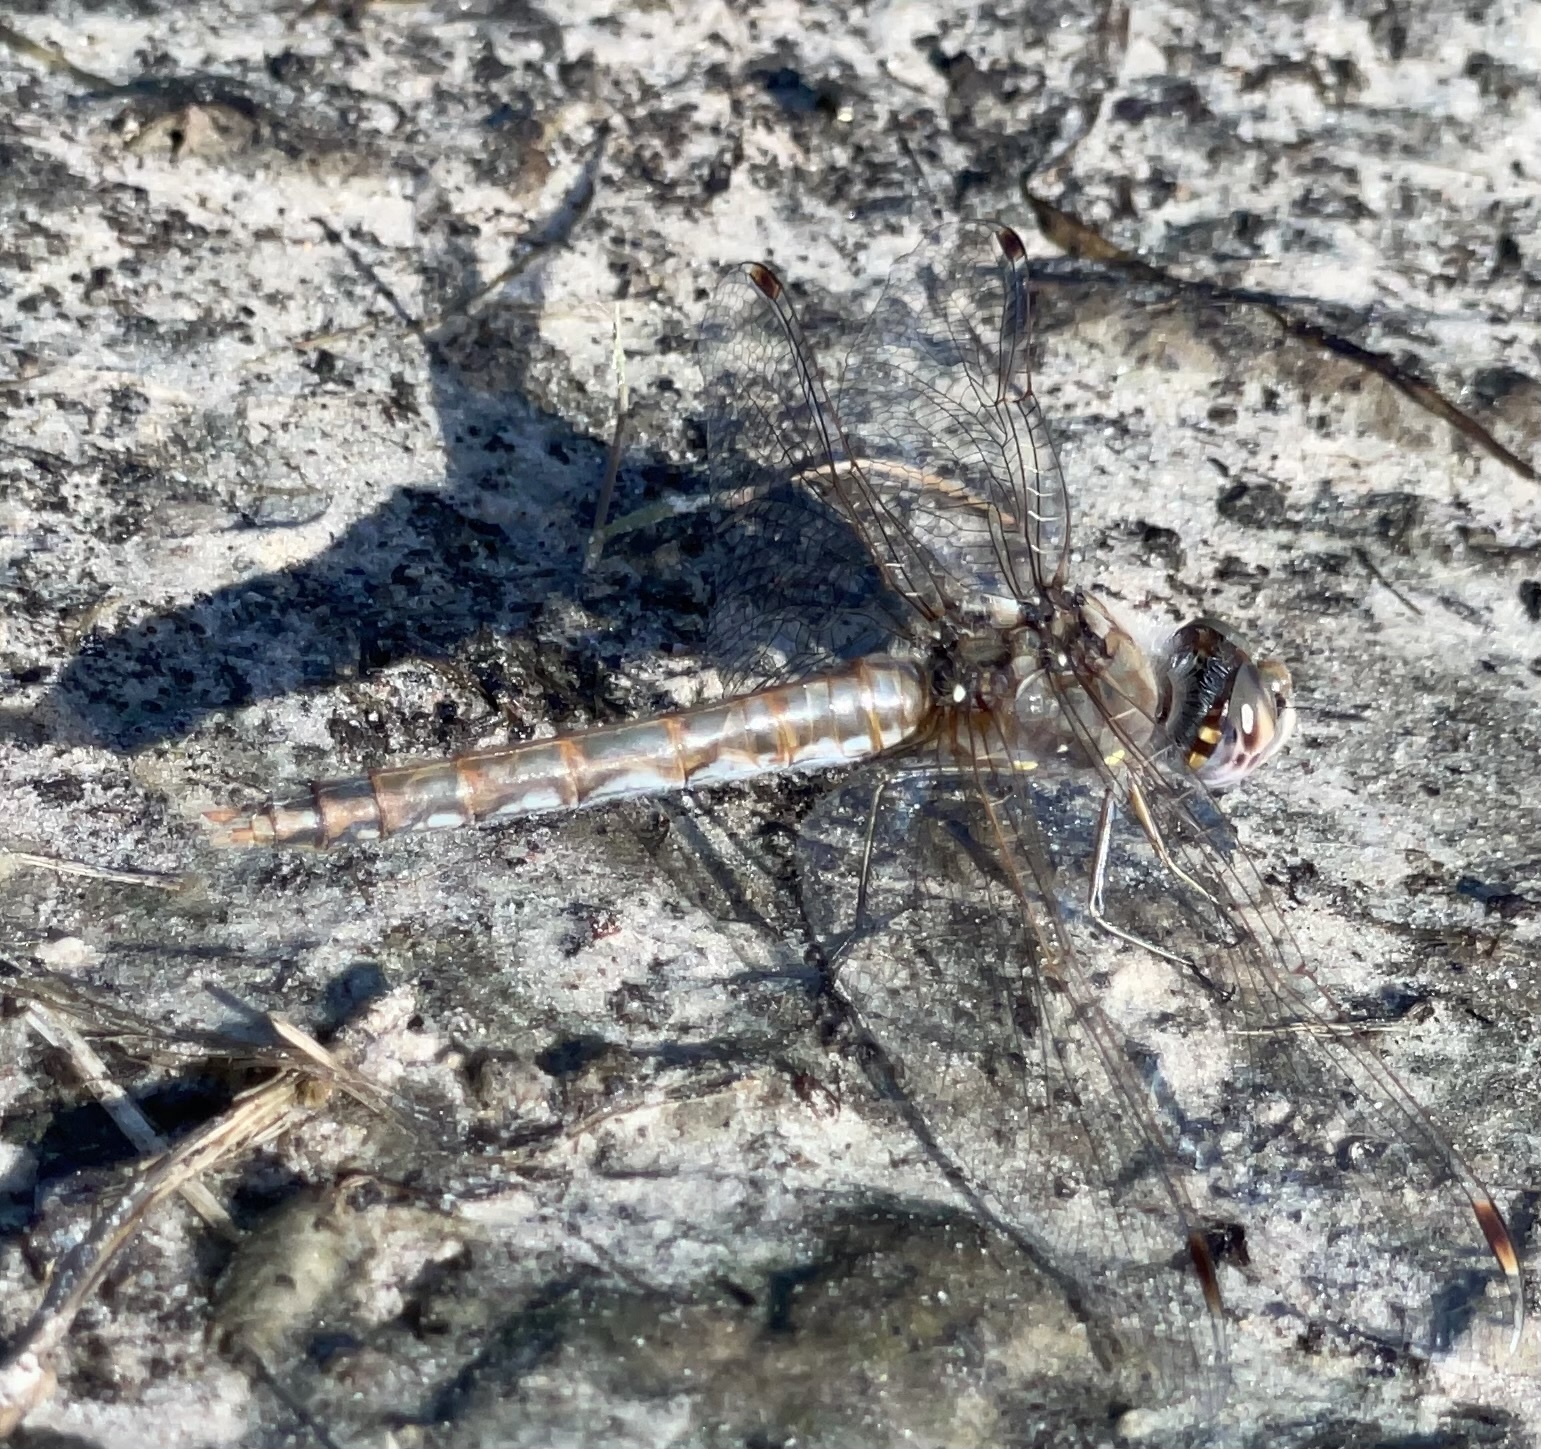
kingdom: Animalia
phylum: Arthropoda
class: Insecta
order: Odonata
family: Libellulidae
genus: Sympetrum
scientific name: Sympetrum corruptum
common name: Variegated meadowhawk
